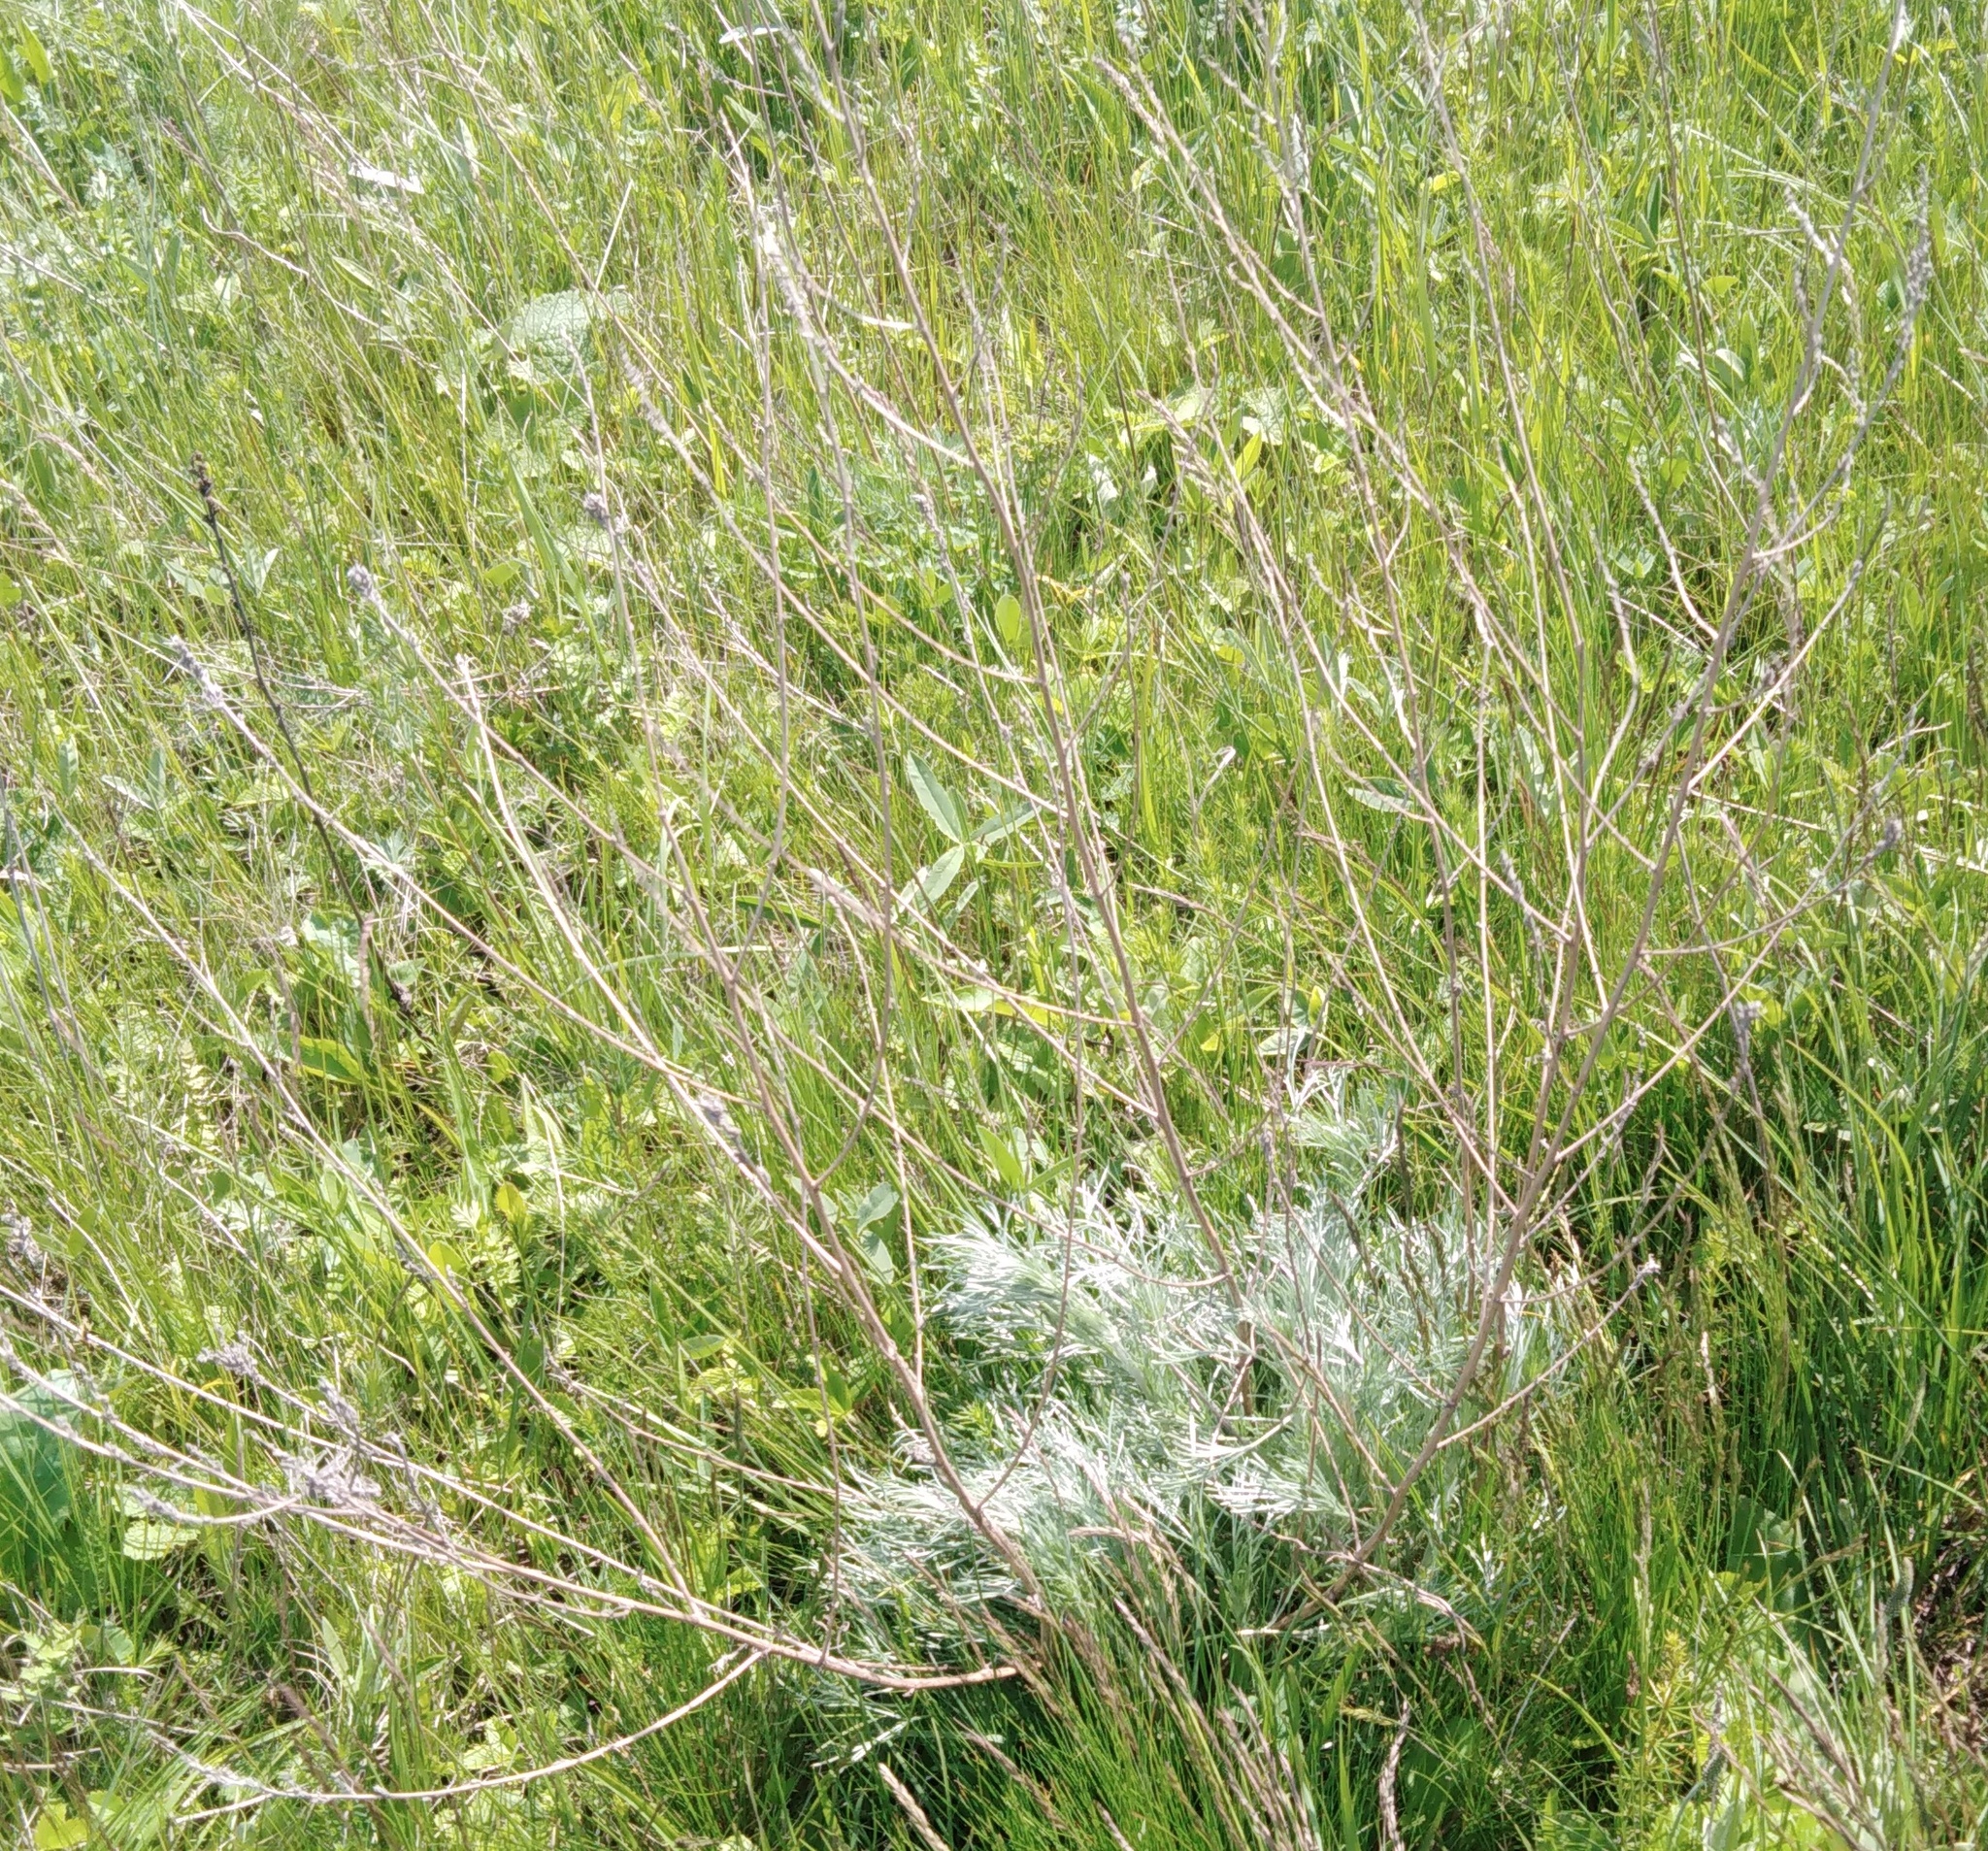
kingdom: Plantae
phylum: Tracheophyta
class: Magnoliopsida
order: Asterales
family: Asteraceae
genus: Artemisia
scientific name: Artemisia campestris
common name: Field wormwood
